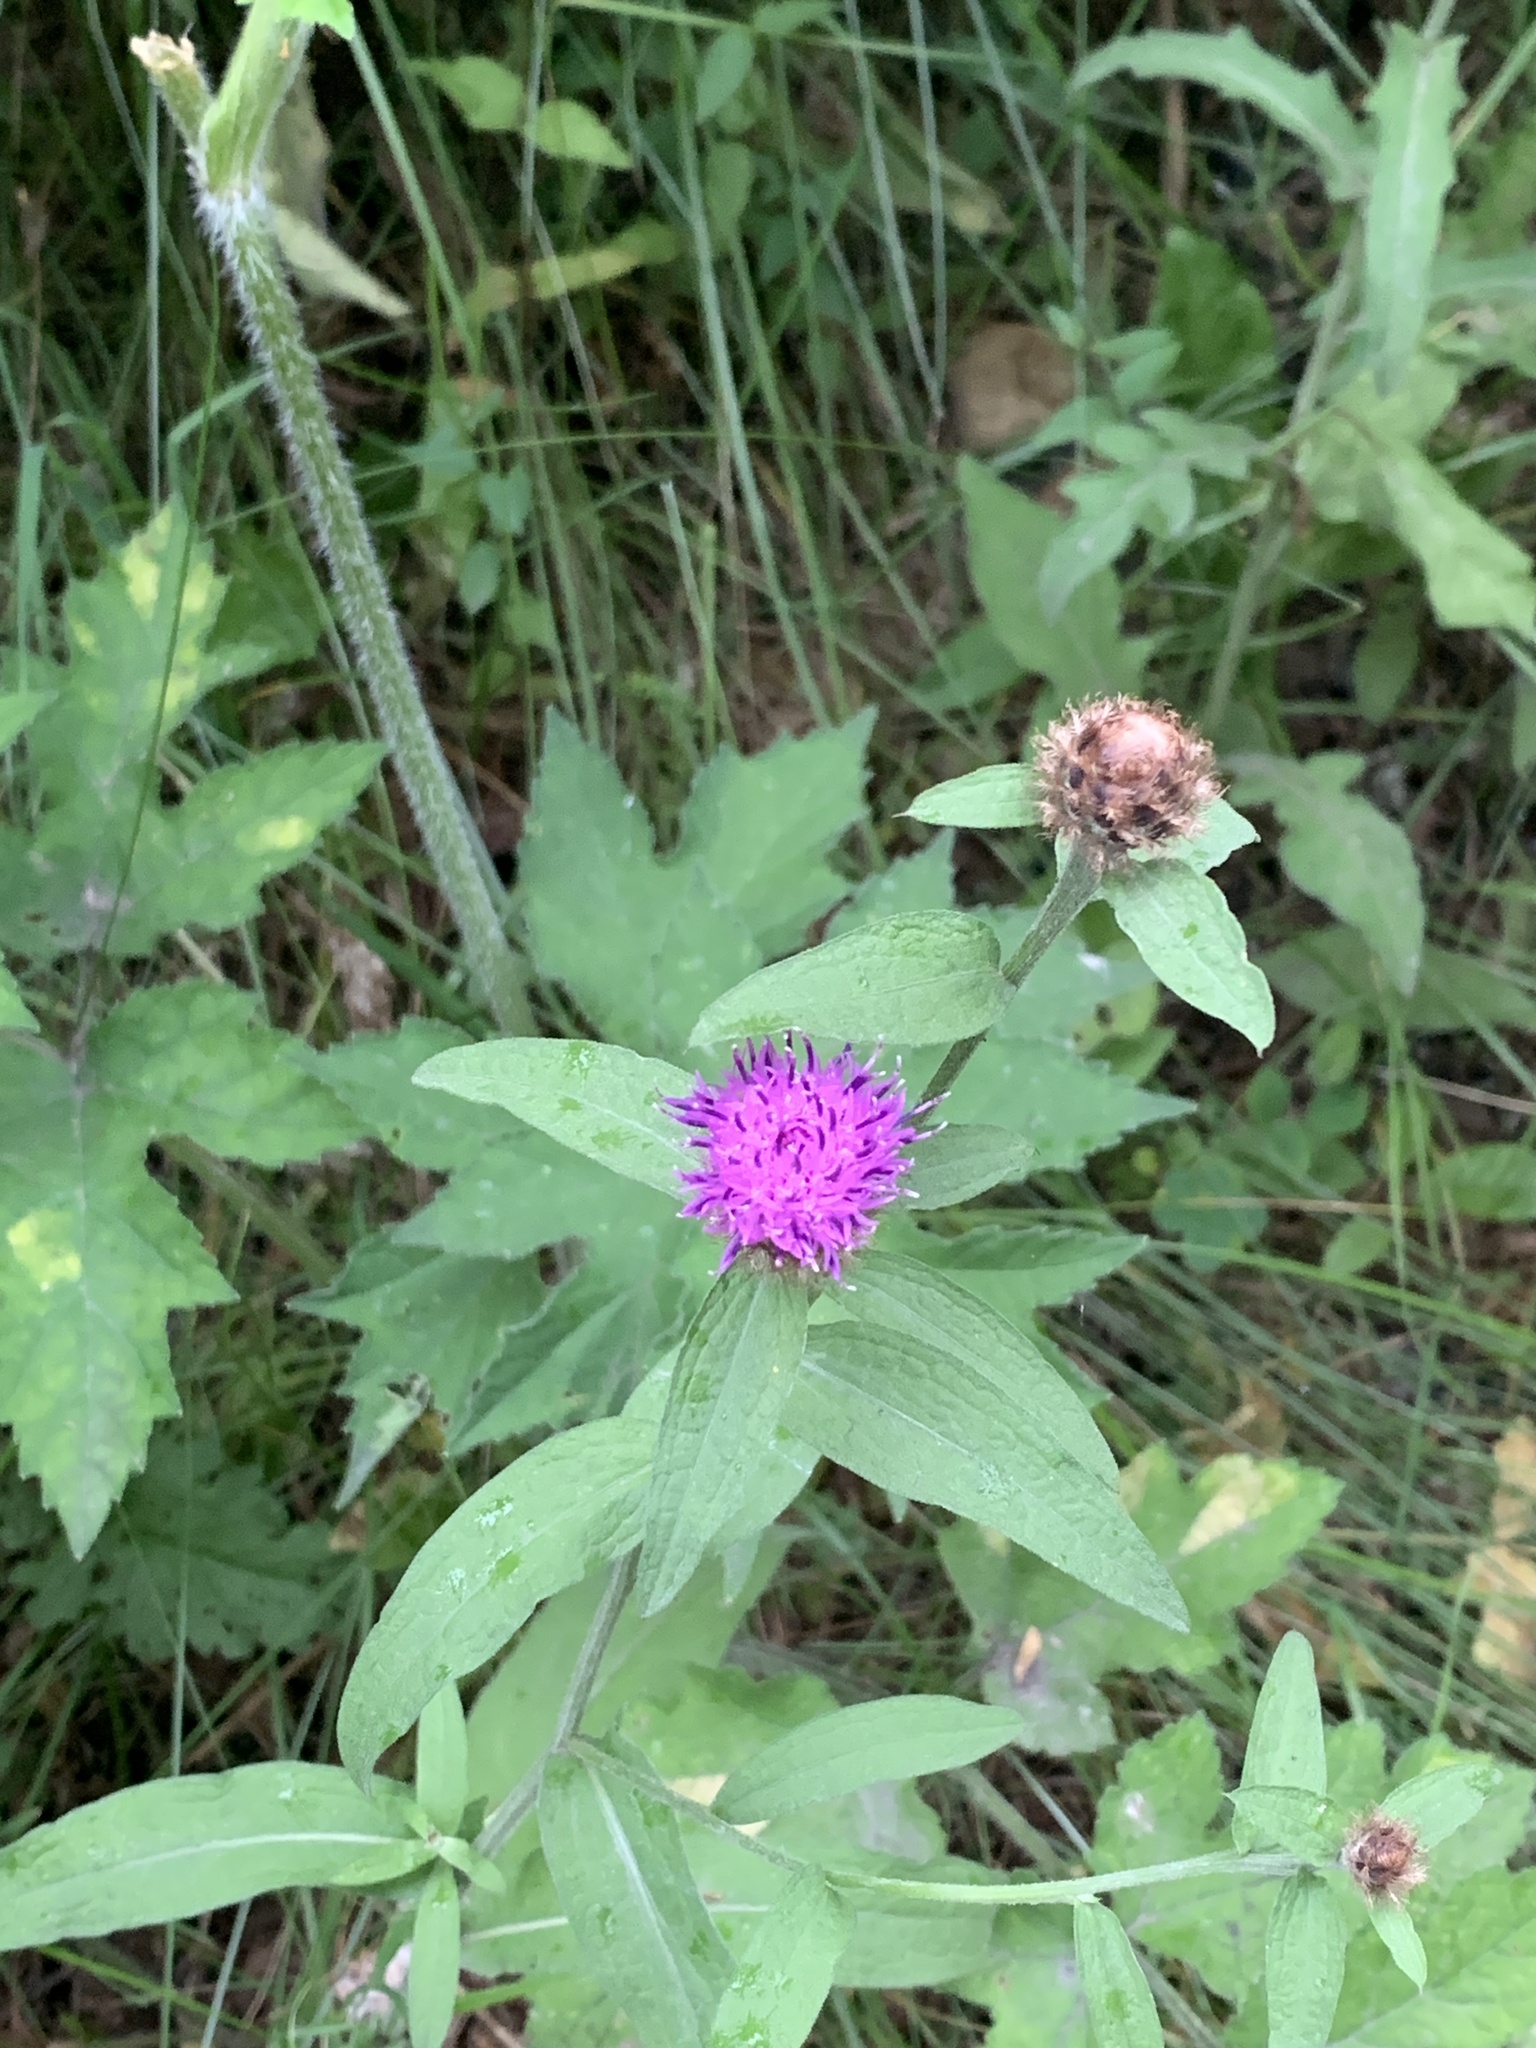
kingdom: Plantae
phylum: Tracheophyta
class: Magnoliopsida
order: Asterales
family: Asteraceae
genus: Centaurea
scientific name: Centaurea nigra
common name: Lesser knapweed
